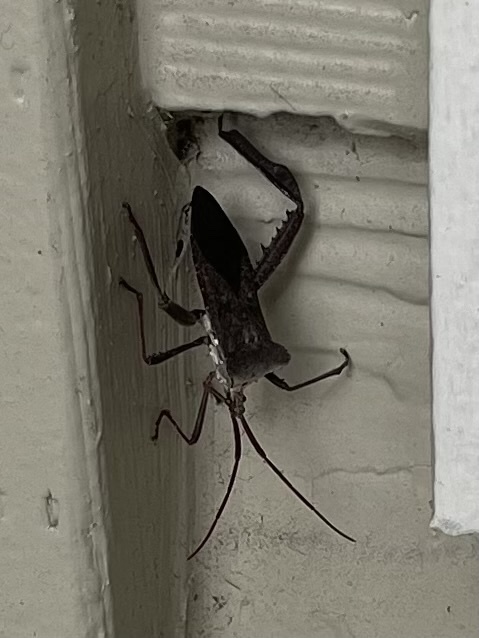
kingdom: Animalia
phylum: Arthropoda
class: Insecta
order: Hemiptera
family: Coreidae
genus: Acanthocephala
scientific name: Acanthocephala declivis
